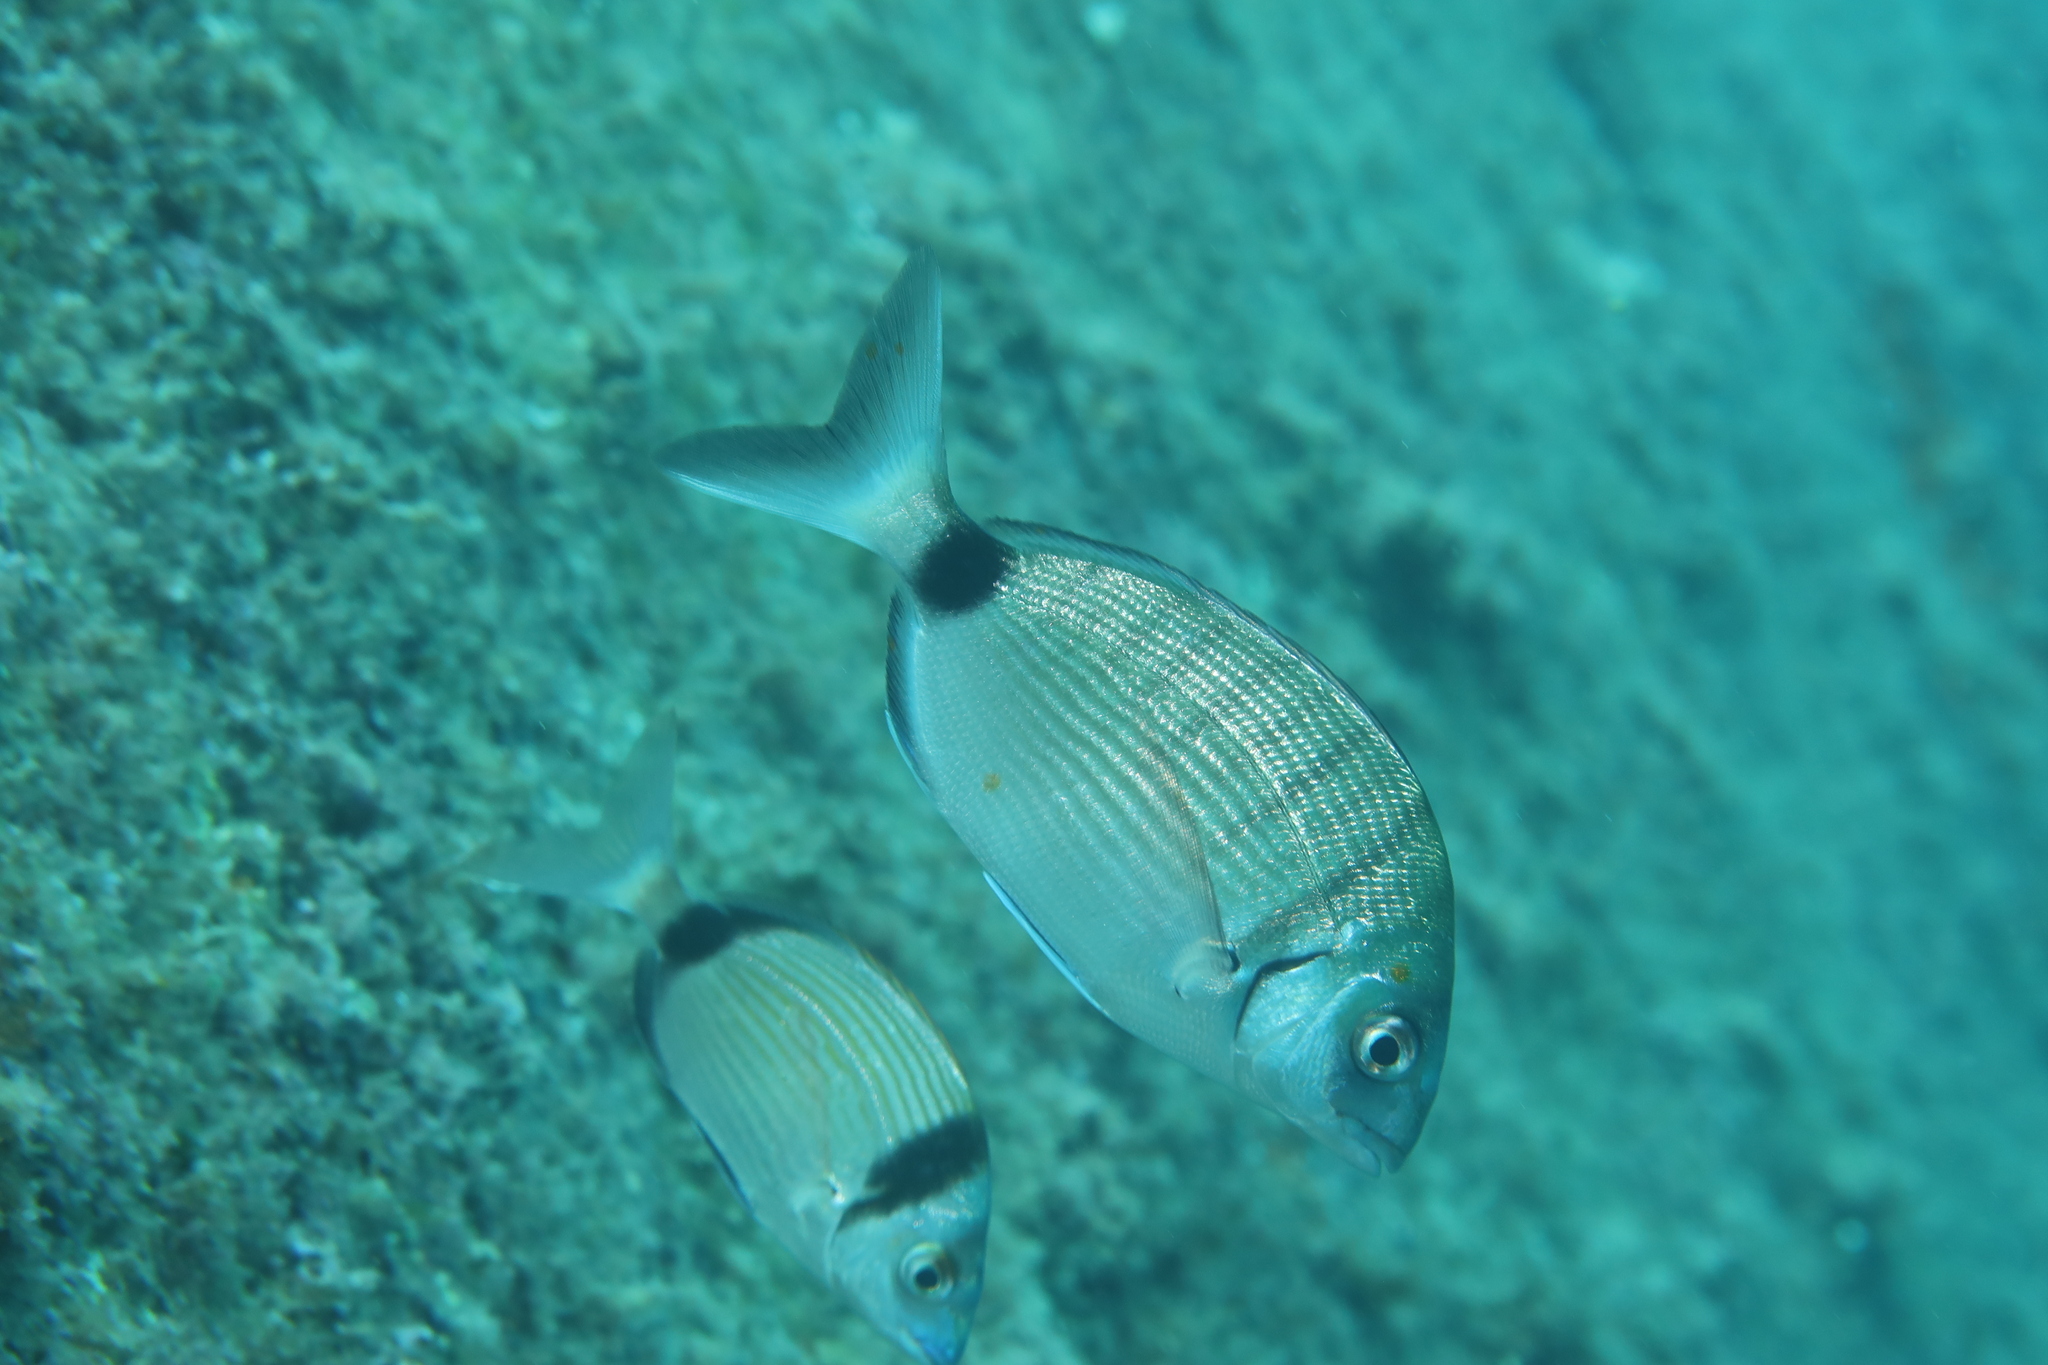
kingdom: Animalia
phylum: Chordata
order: Perciformes
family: Sparidae
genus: Diplodus
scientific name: Diplodus sargus
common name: White seabream
